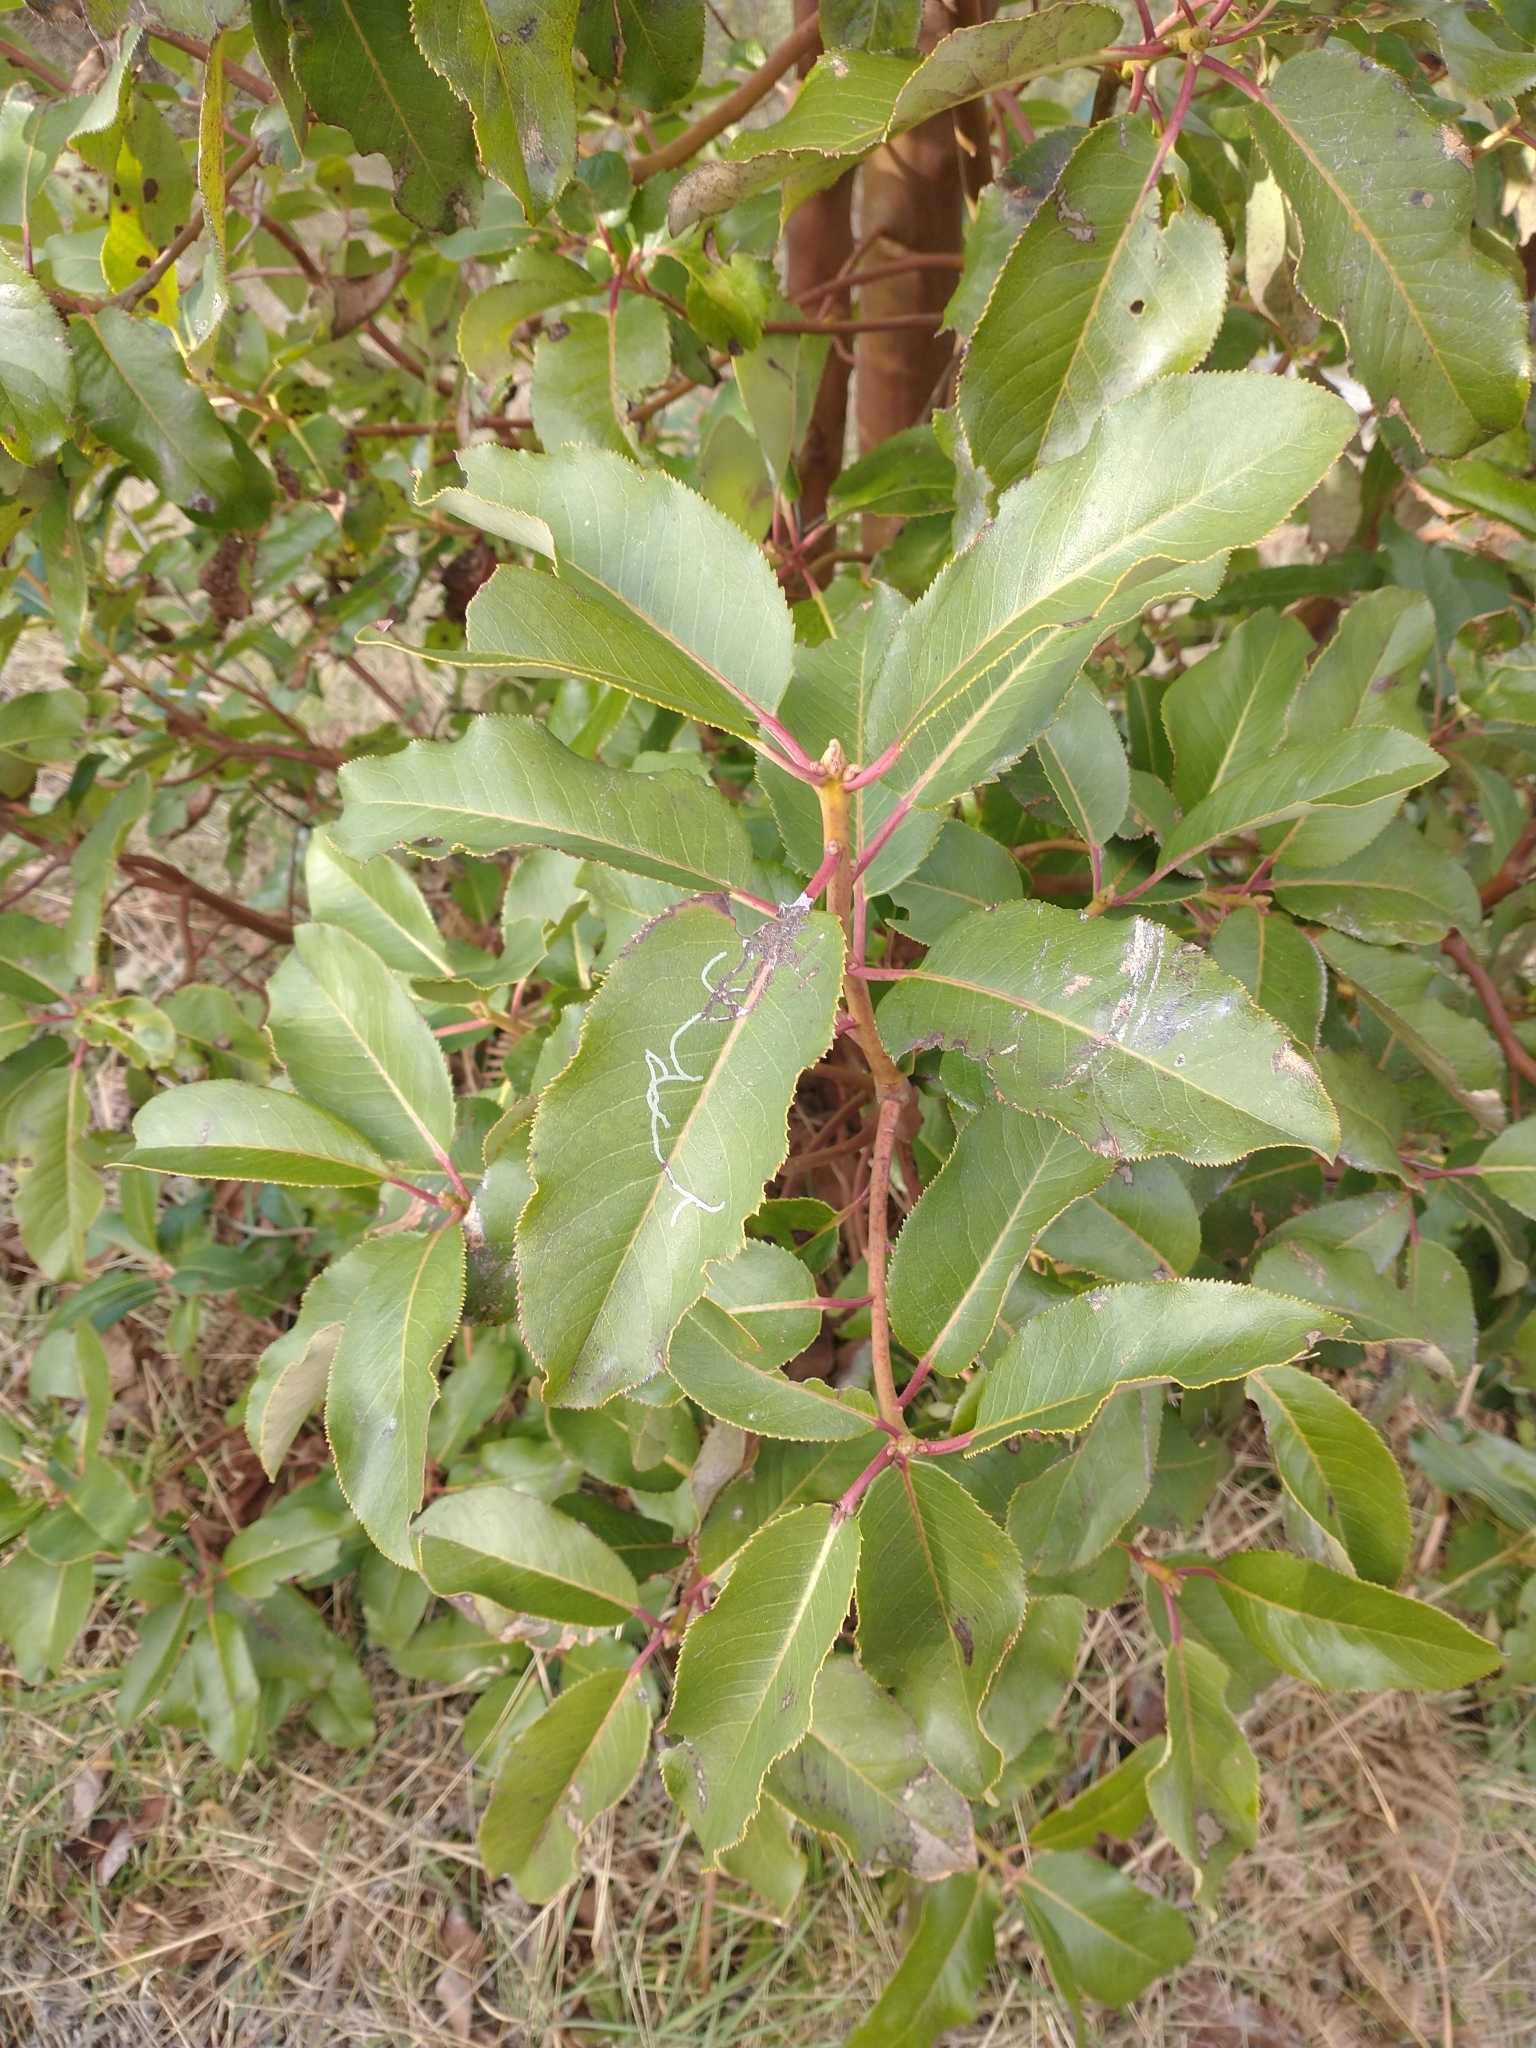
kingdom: Plantae
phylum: Tracheophyta
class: Magnoliopsida
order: Ericales
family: Ericaceae
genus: Arbutus
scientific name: Arbutus menziesii
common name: Pacific madrone
